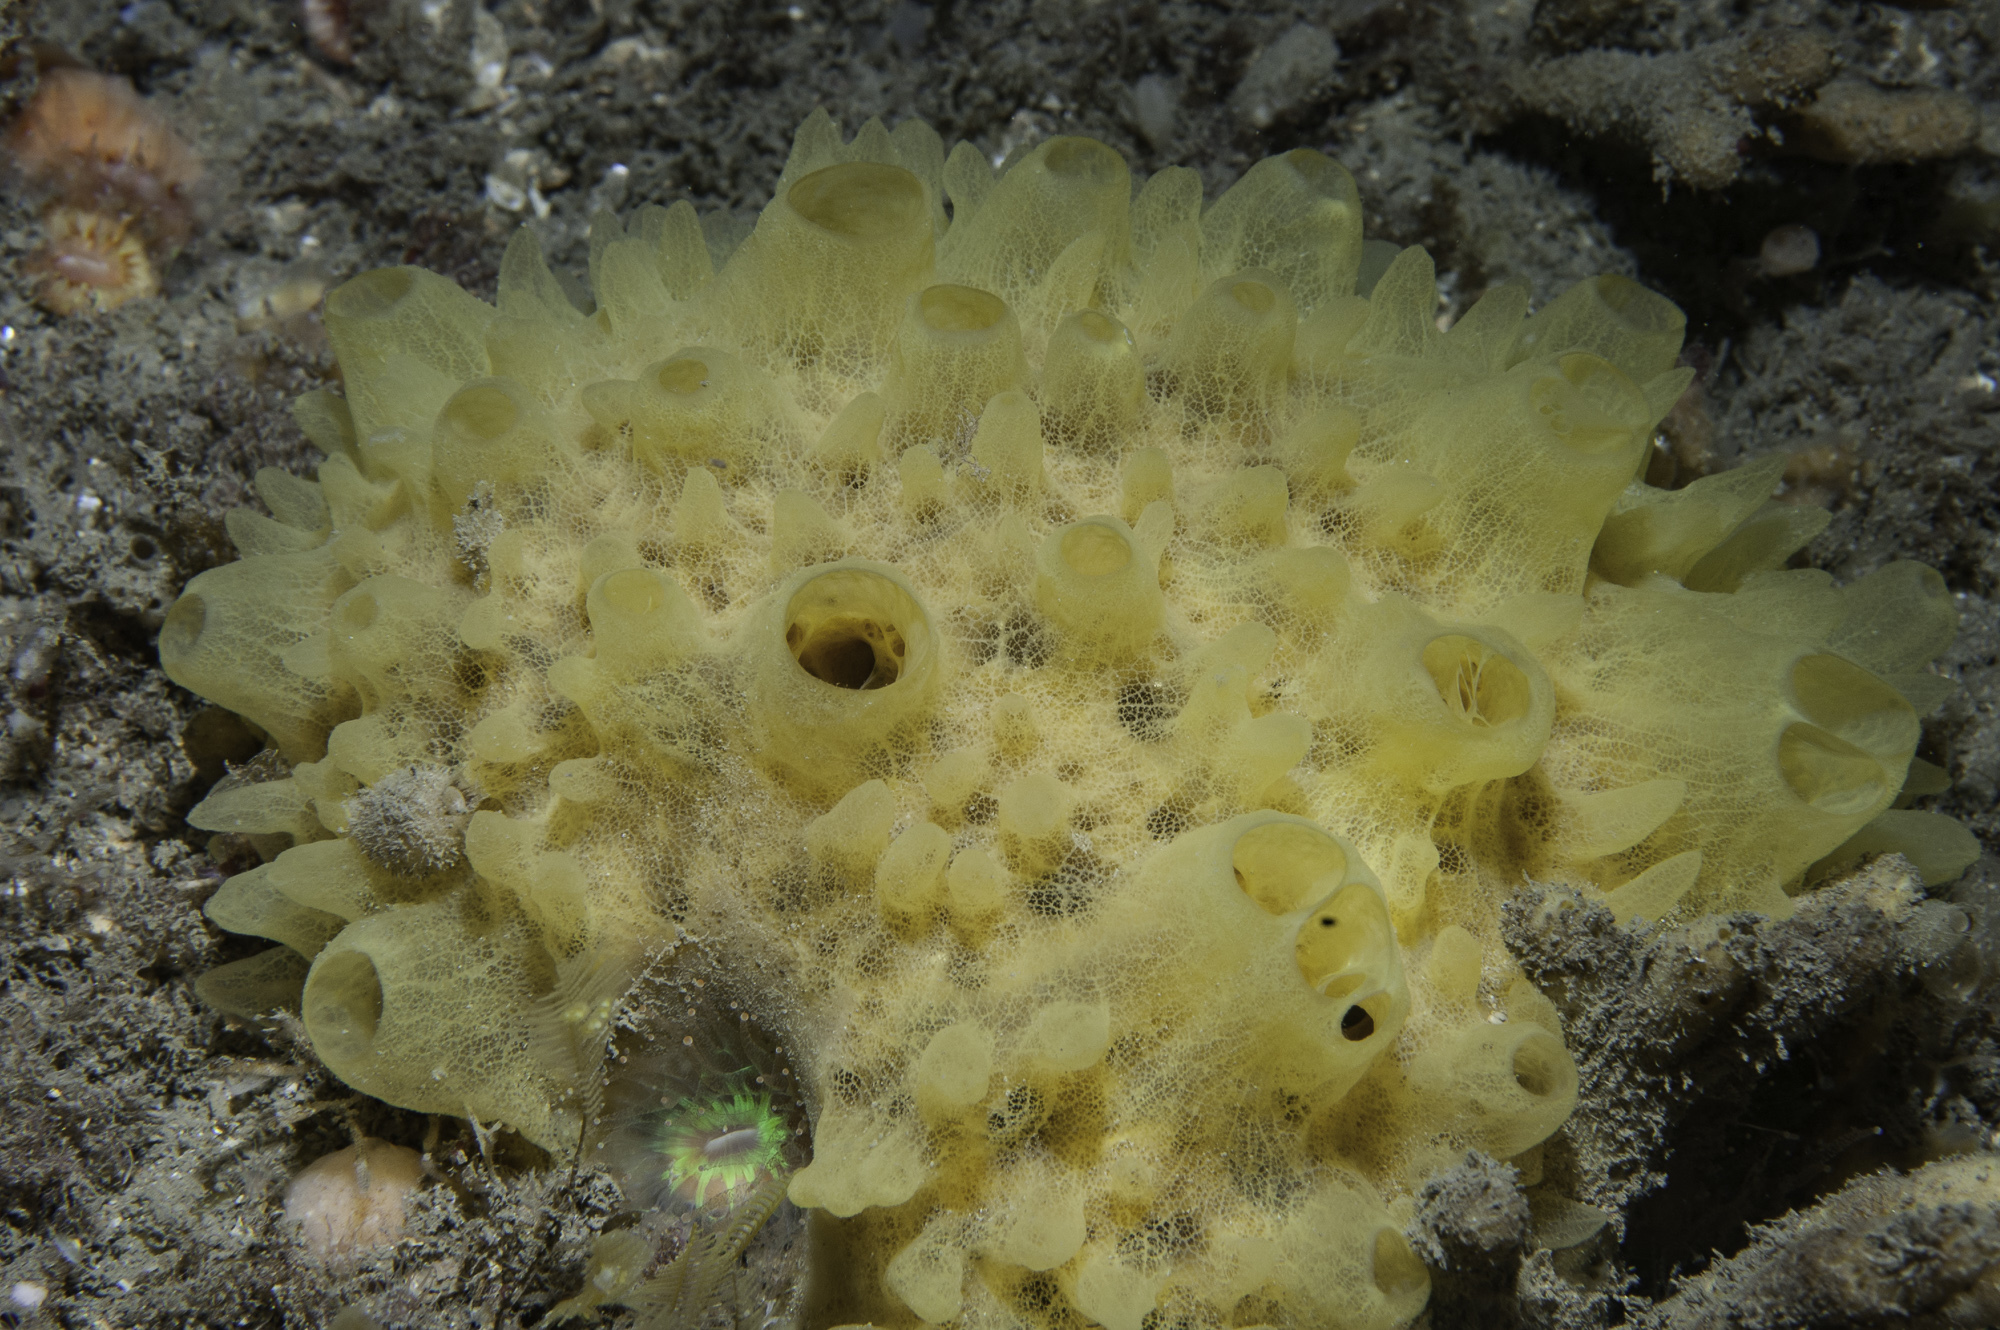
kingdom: Animalia
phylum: Porifera
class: Demospongiae
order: Polymastiida
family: Polymastiidae
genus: Polymastia
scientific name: Polymastia boletiformis
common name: Massive horny sponge
